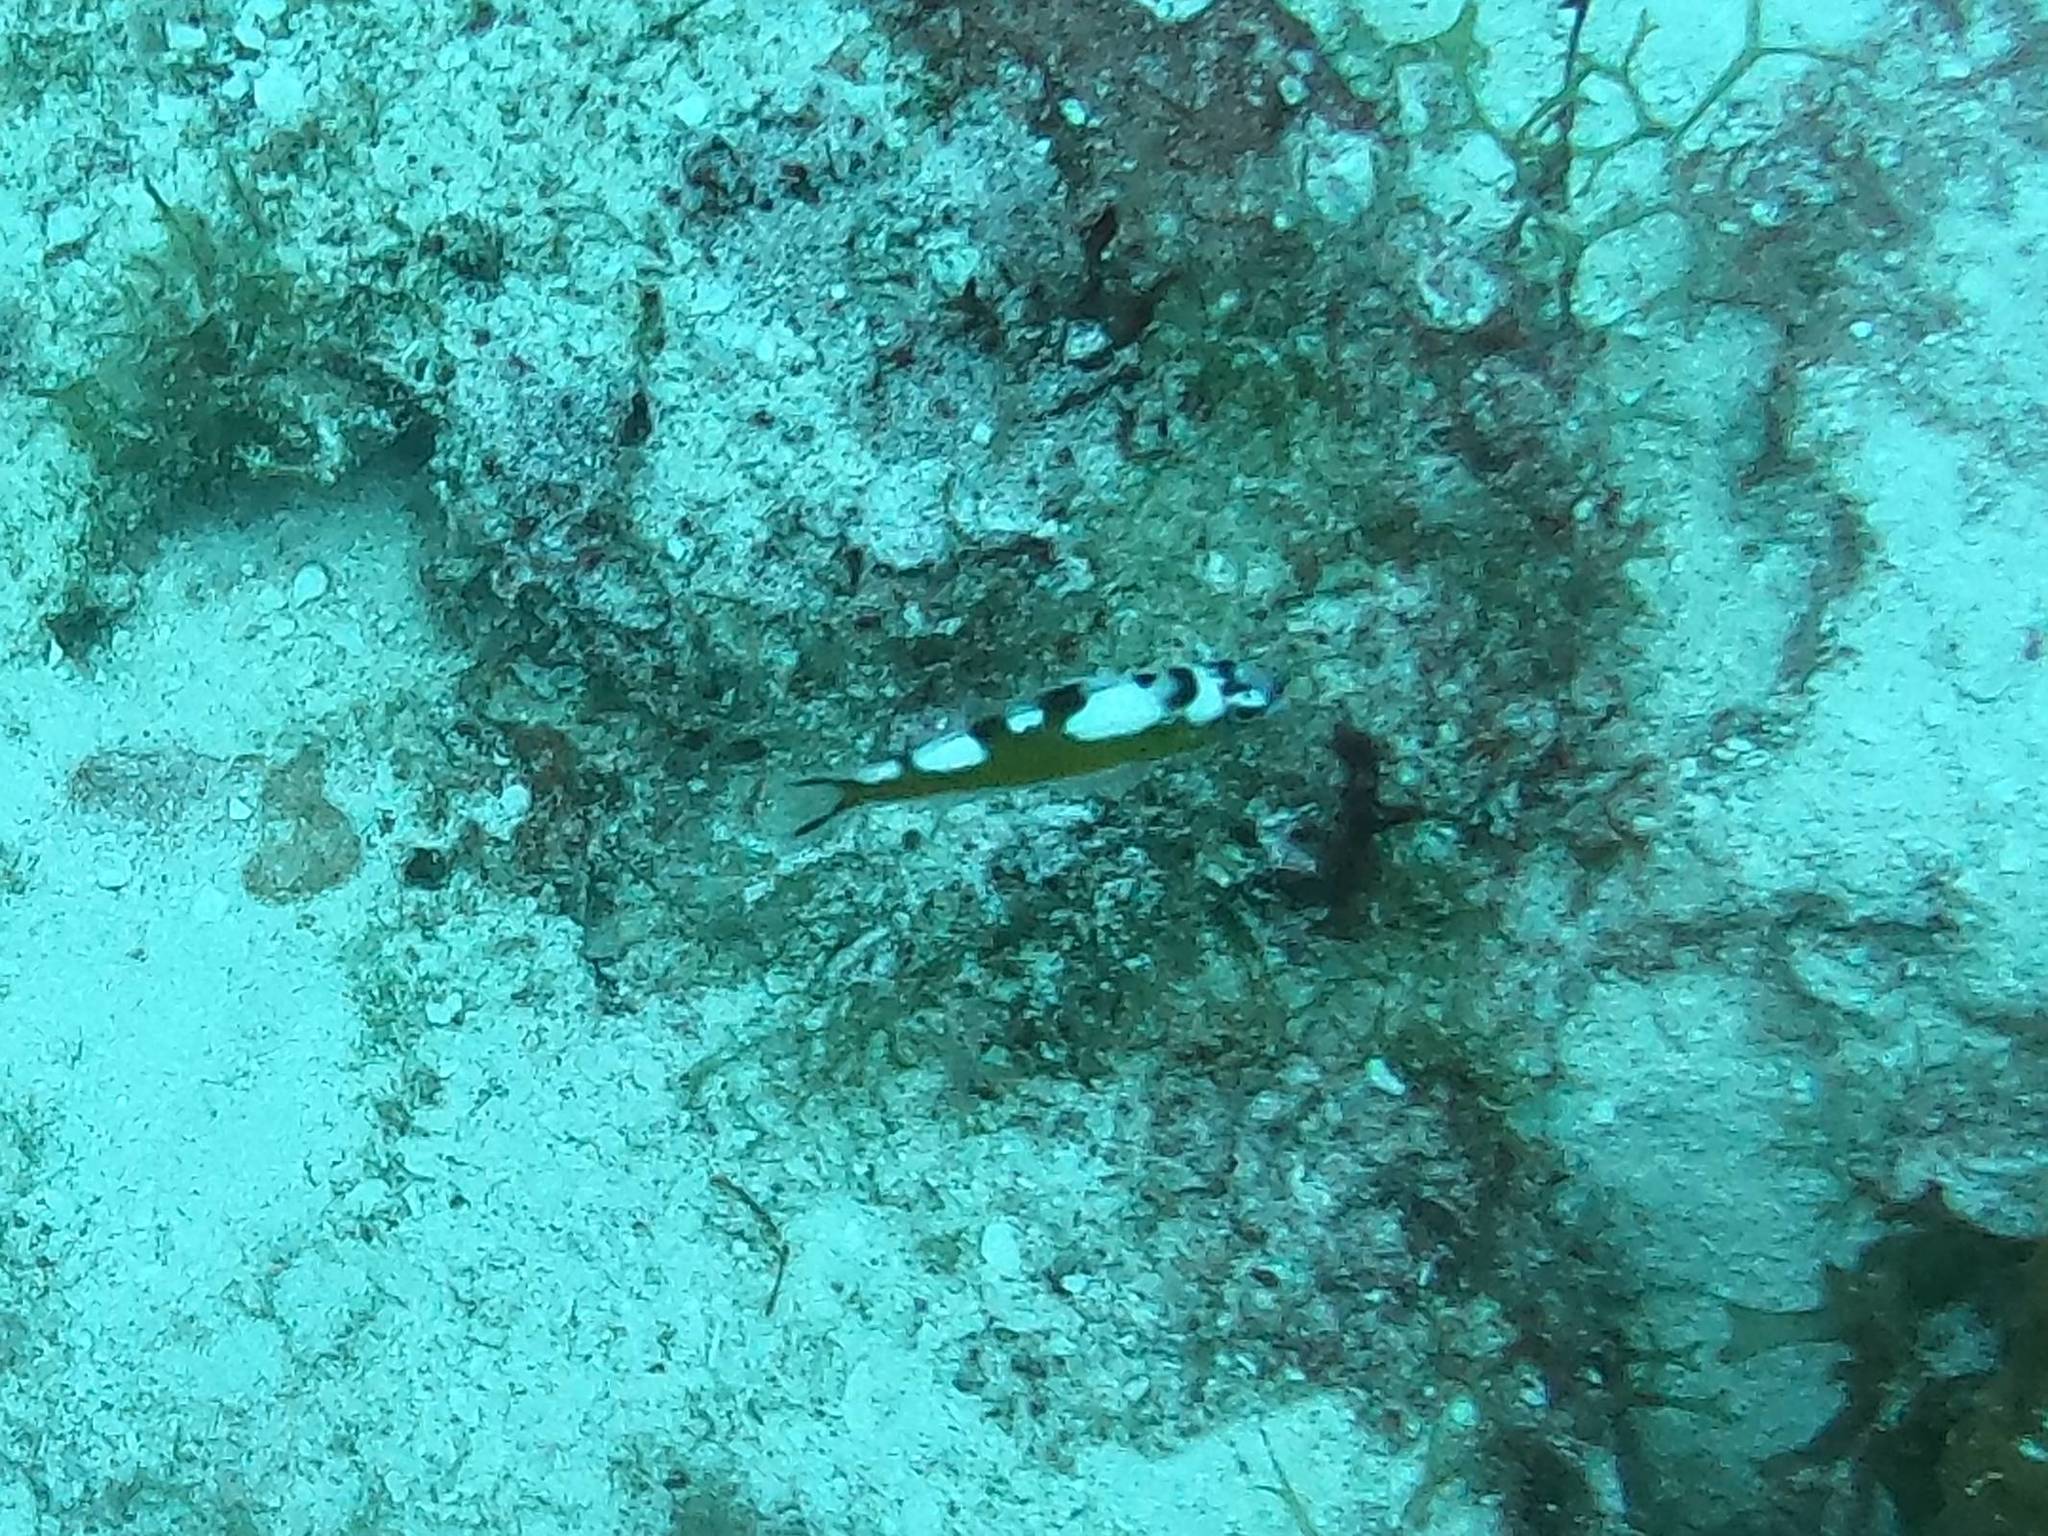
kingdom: Animalia
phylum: Chordata
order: Perciformes
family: Serranidae
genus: Serranus
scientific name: Serranus tabacarius
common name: Tobaccofish
